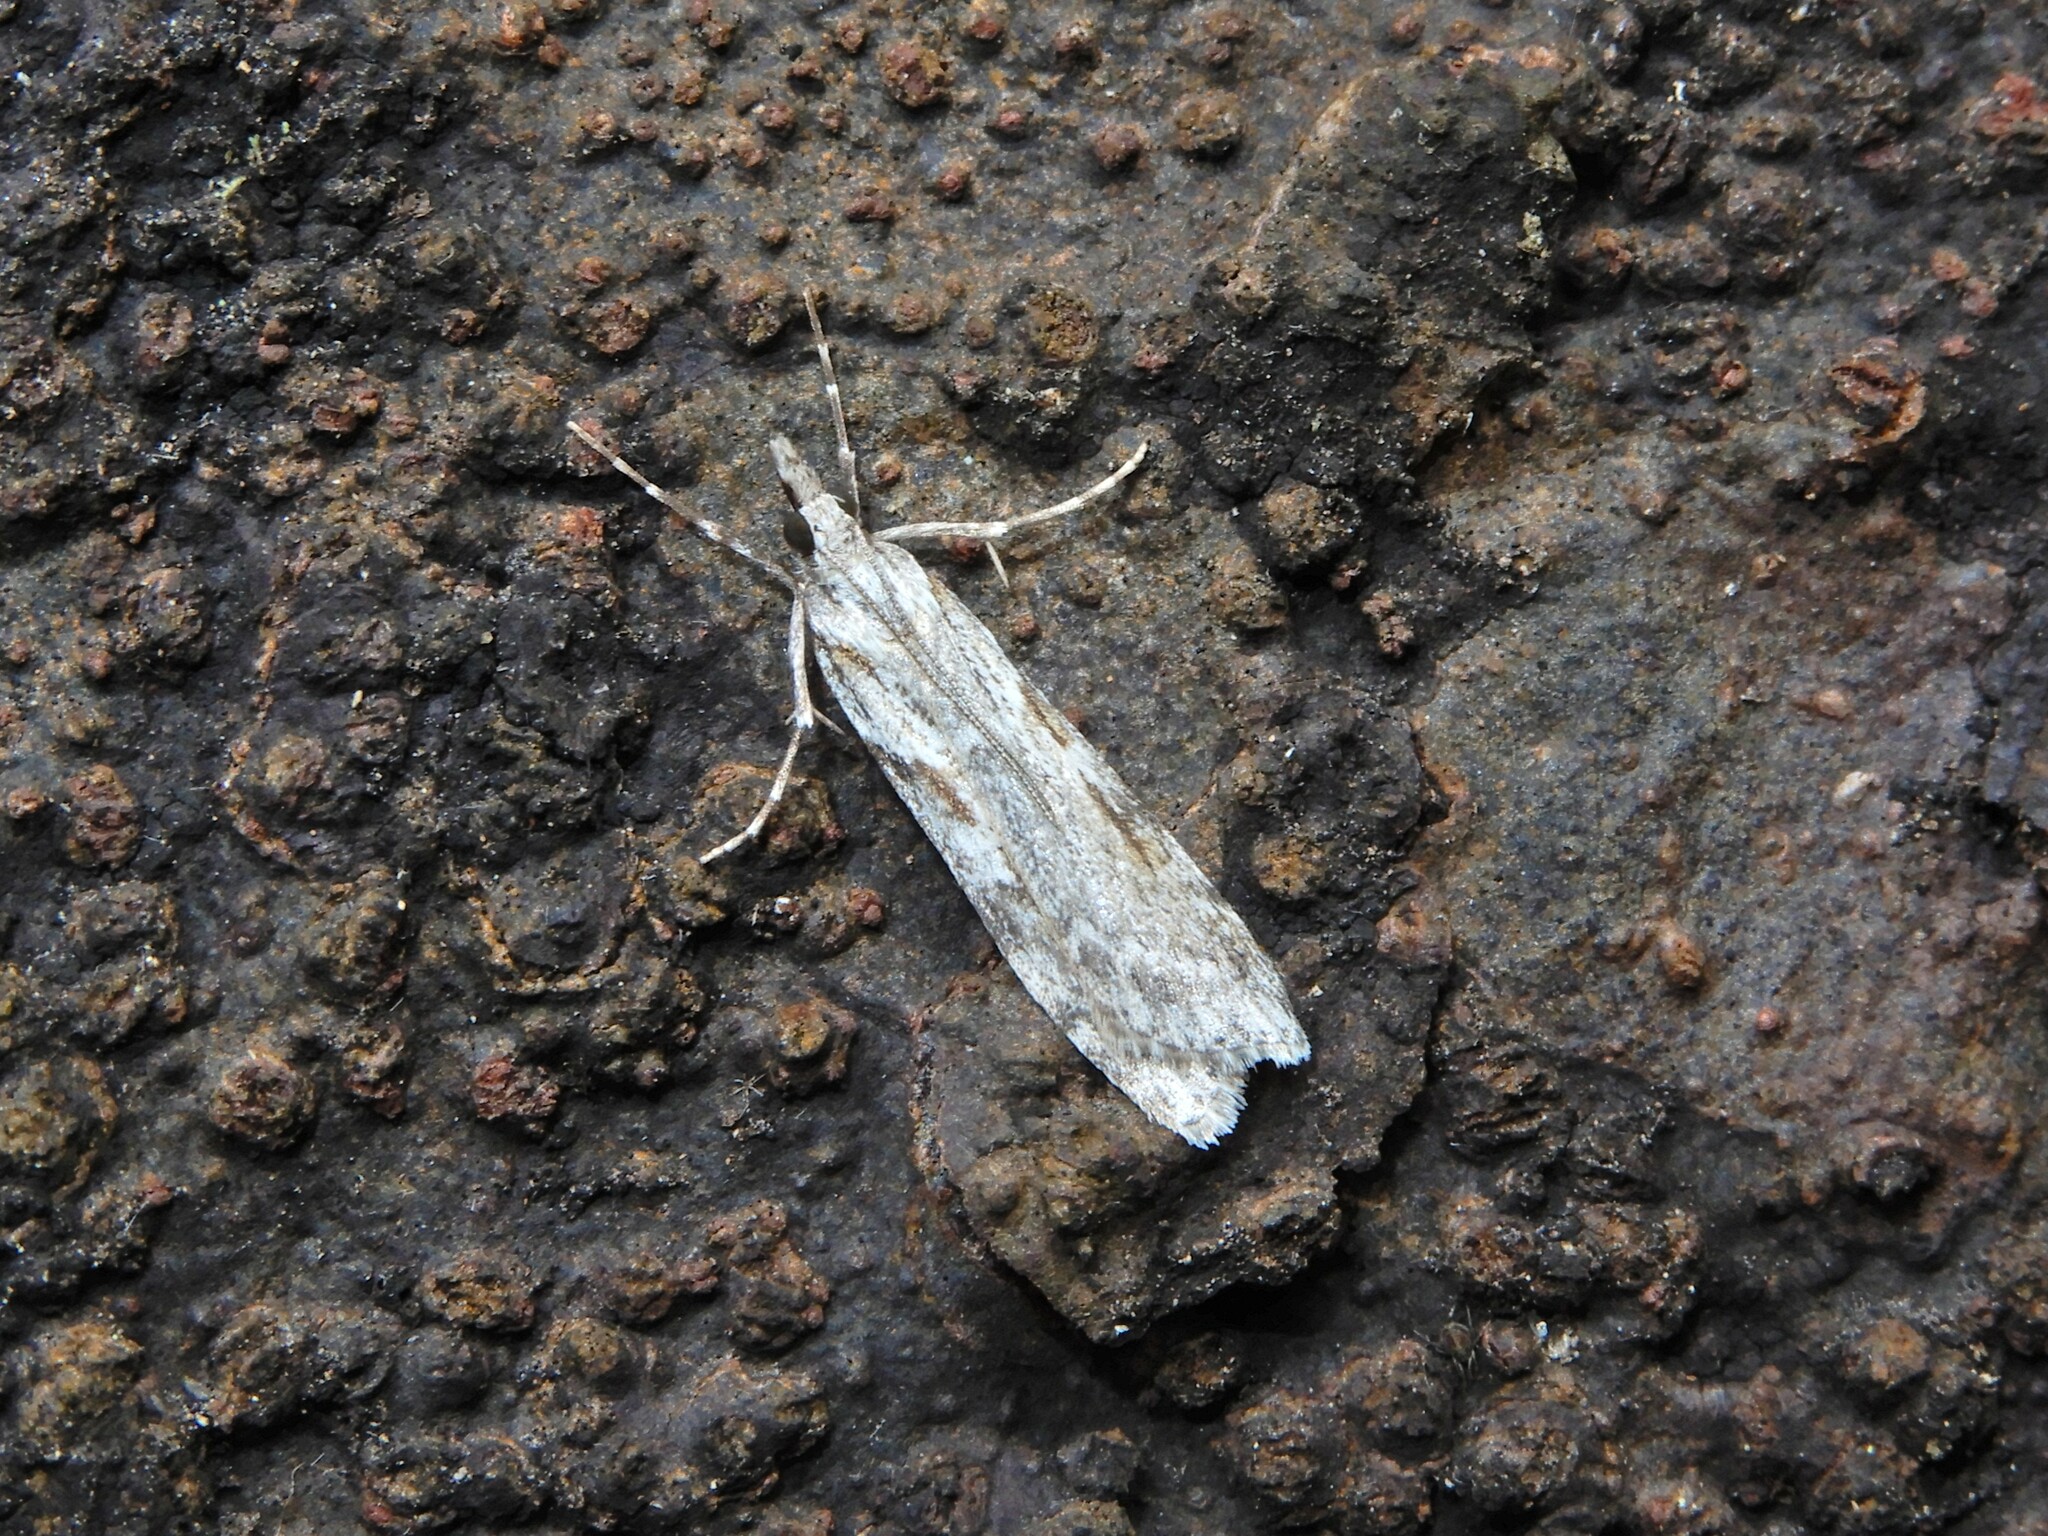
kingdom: Animalia
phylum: Arthropoda
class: Insecta
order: Lepidoptera
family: Crambidae
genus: Scoparia
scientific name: Scoparia halopis
